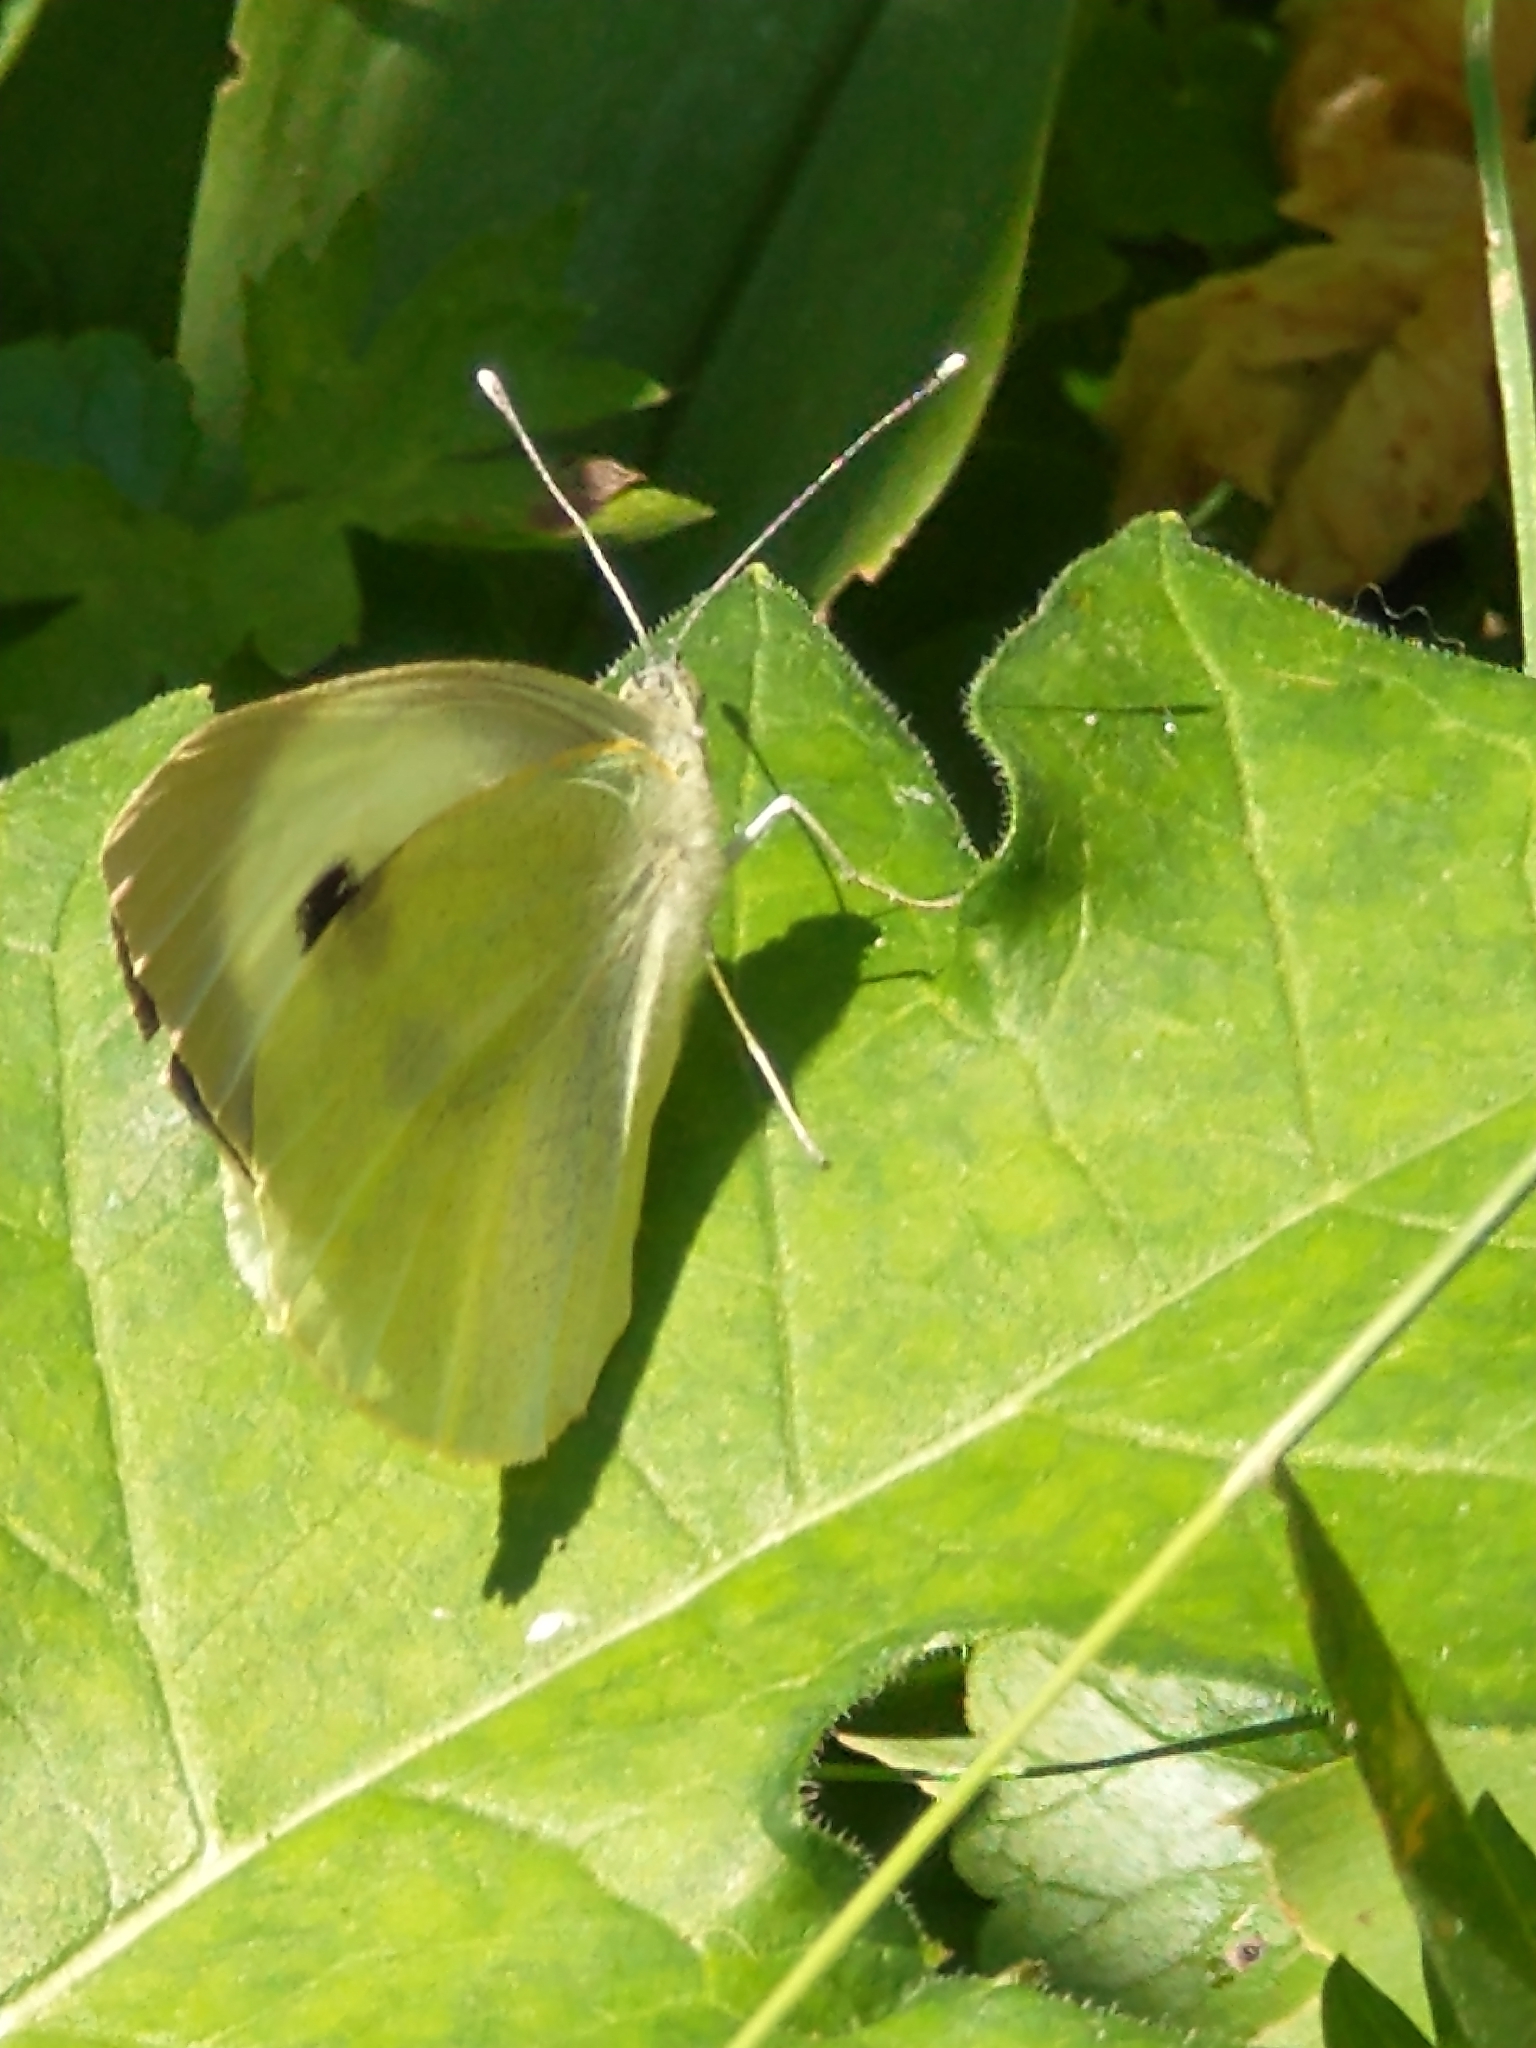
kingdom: Animalia
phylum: Arthropoda
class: Insecta
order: Lepidoptera
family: Pieridae
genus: Pieris
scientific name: Pieris brassicae
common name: Large white
